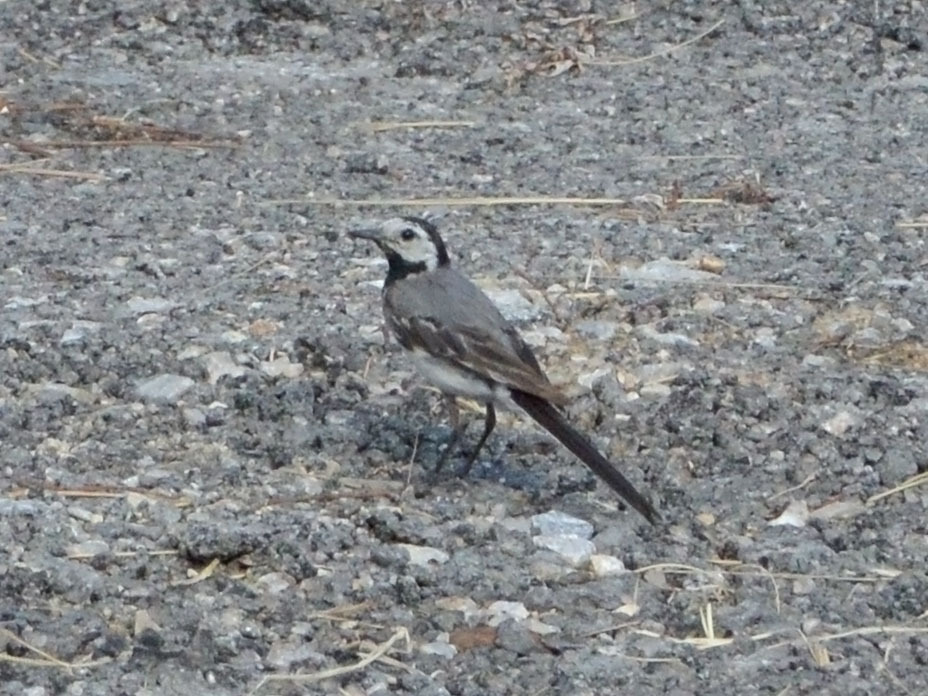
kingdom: Animalia
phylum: Chordata
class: Aves
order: Passeriformes
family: Motacillidae
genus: Motacilla
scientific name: Motacilla alba
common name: White wagtail
